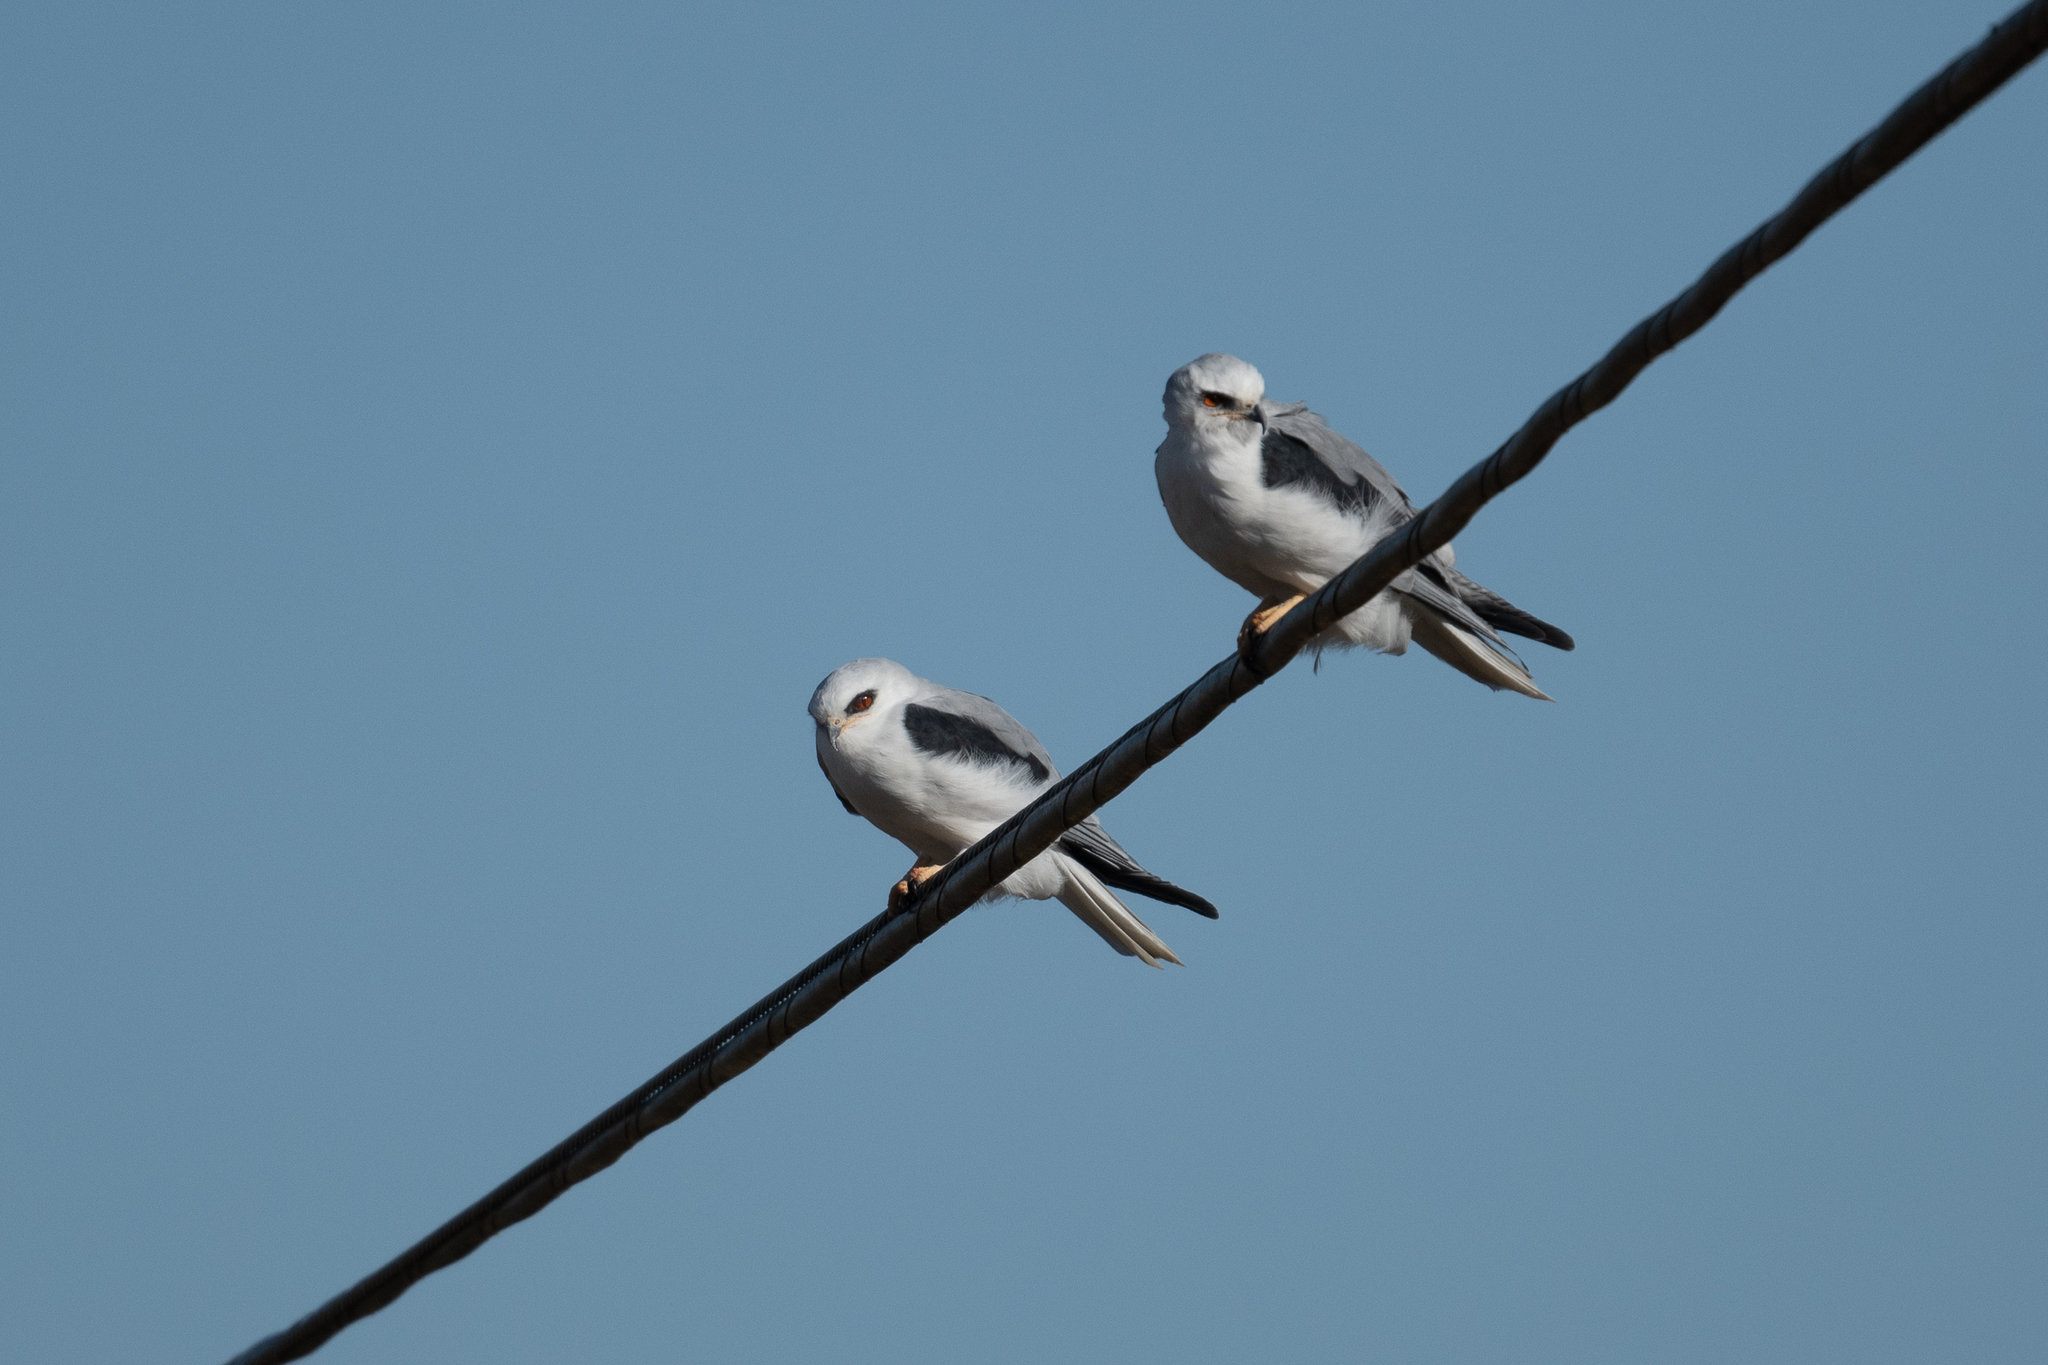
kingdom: Animalia
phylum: Chordata
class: Aves
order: Accipitriformes
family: Accipitridae
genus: Elanus
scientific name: Elanus leucurus
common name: White-tailed kite
